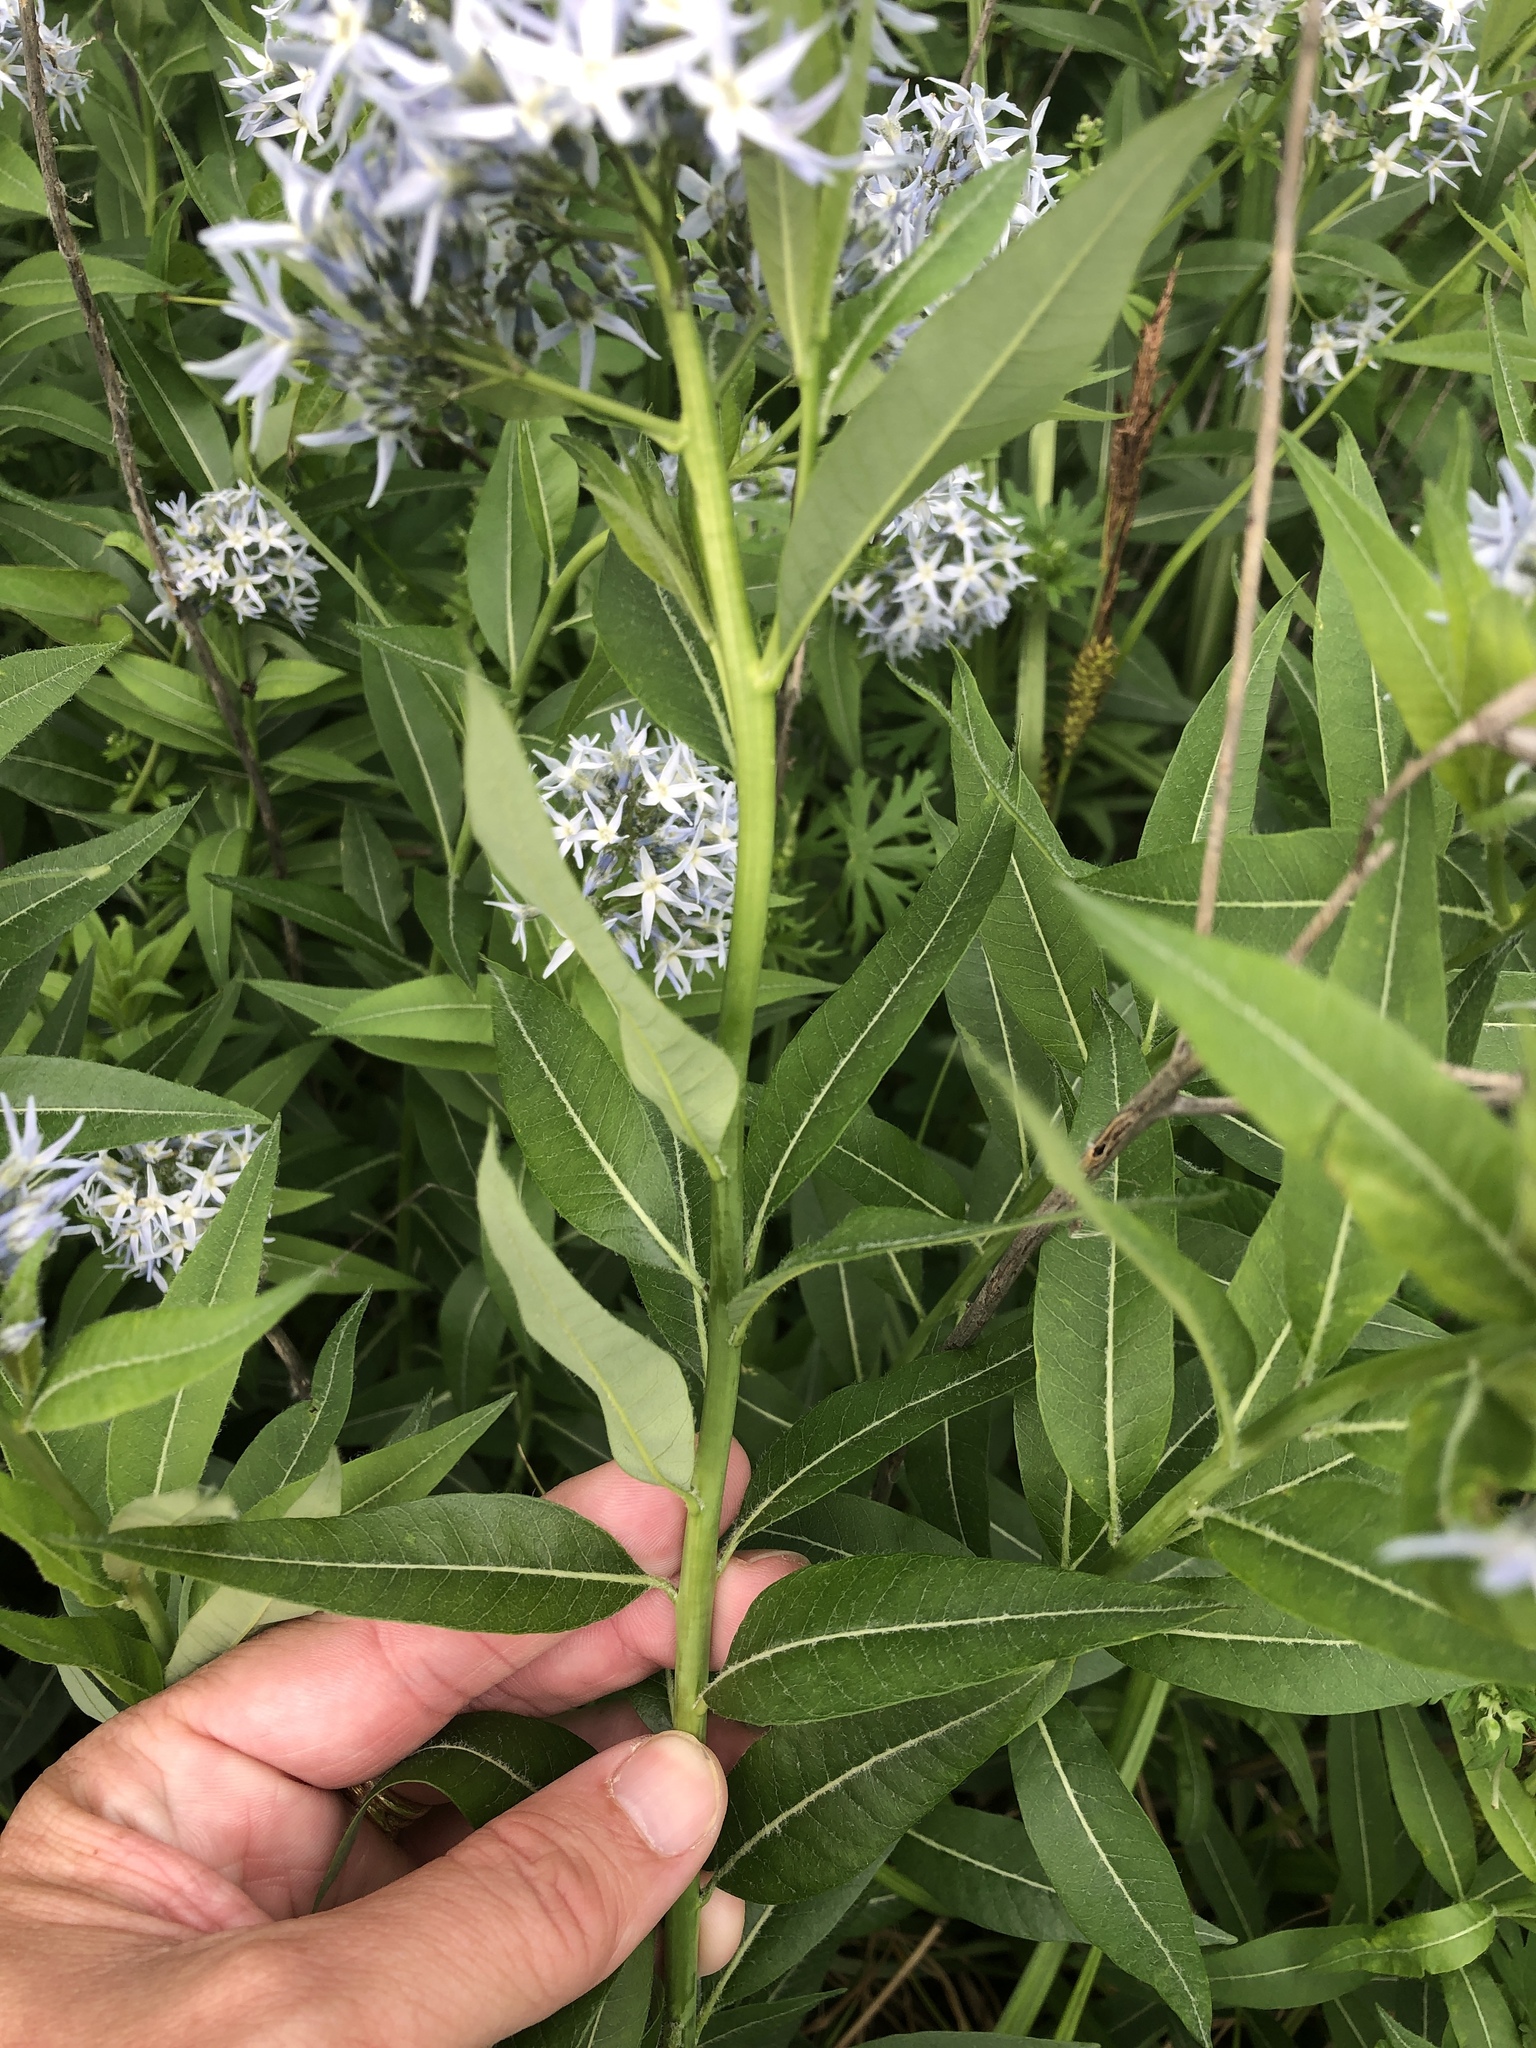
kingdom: Plantae
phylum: Tracheophyta
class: Magnoliopsida
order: Gentianales
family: Apocynaceae
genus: Amsonia
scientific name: Amsonia tabernaemontana
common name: Texas-star
